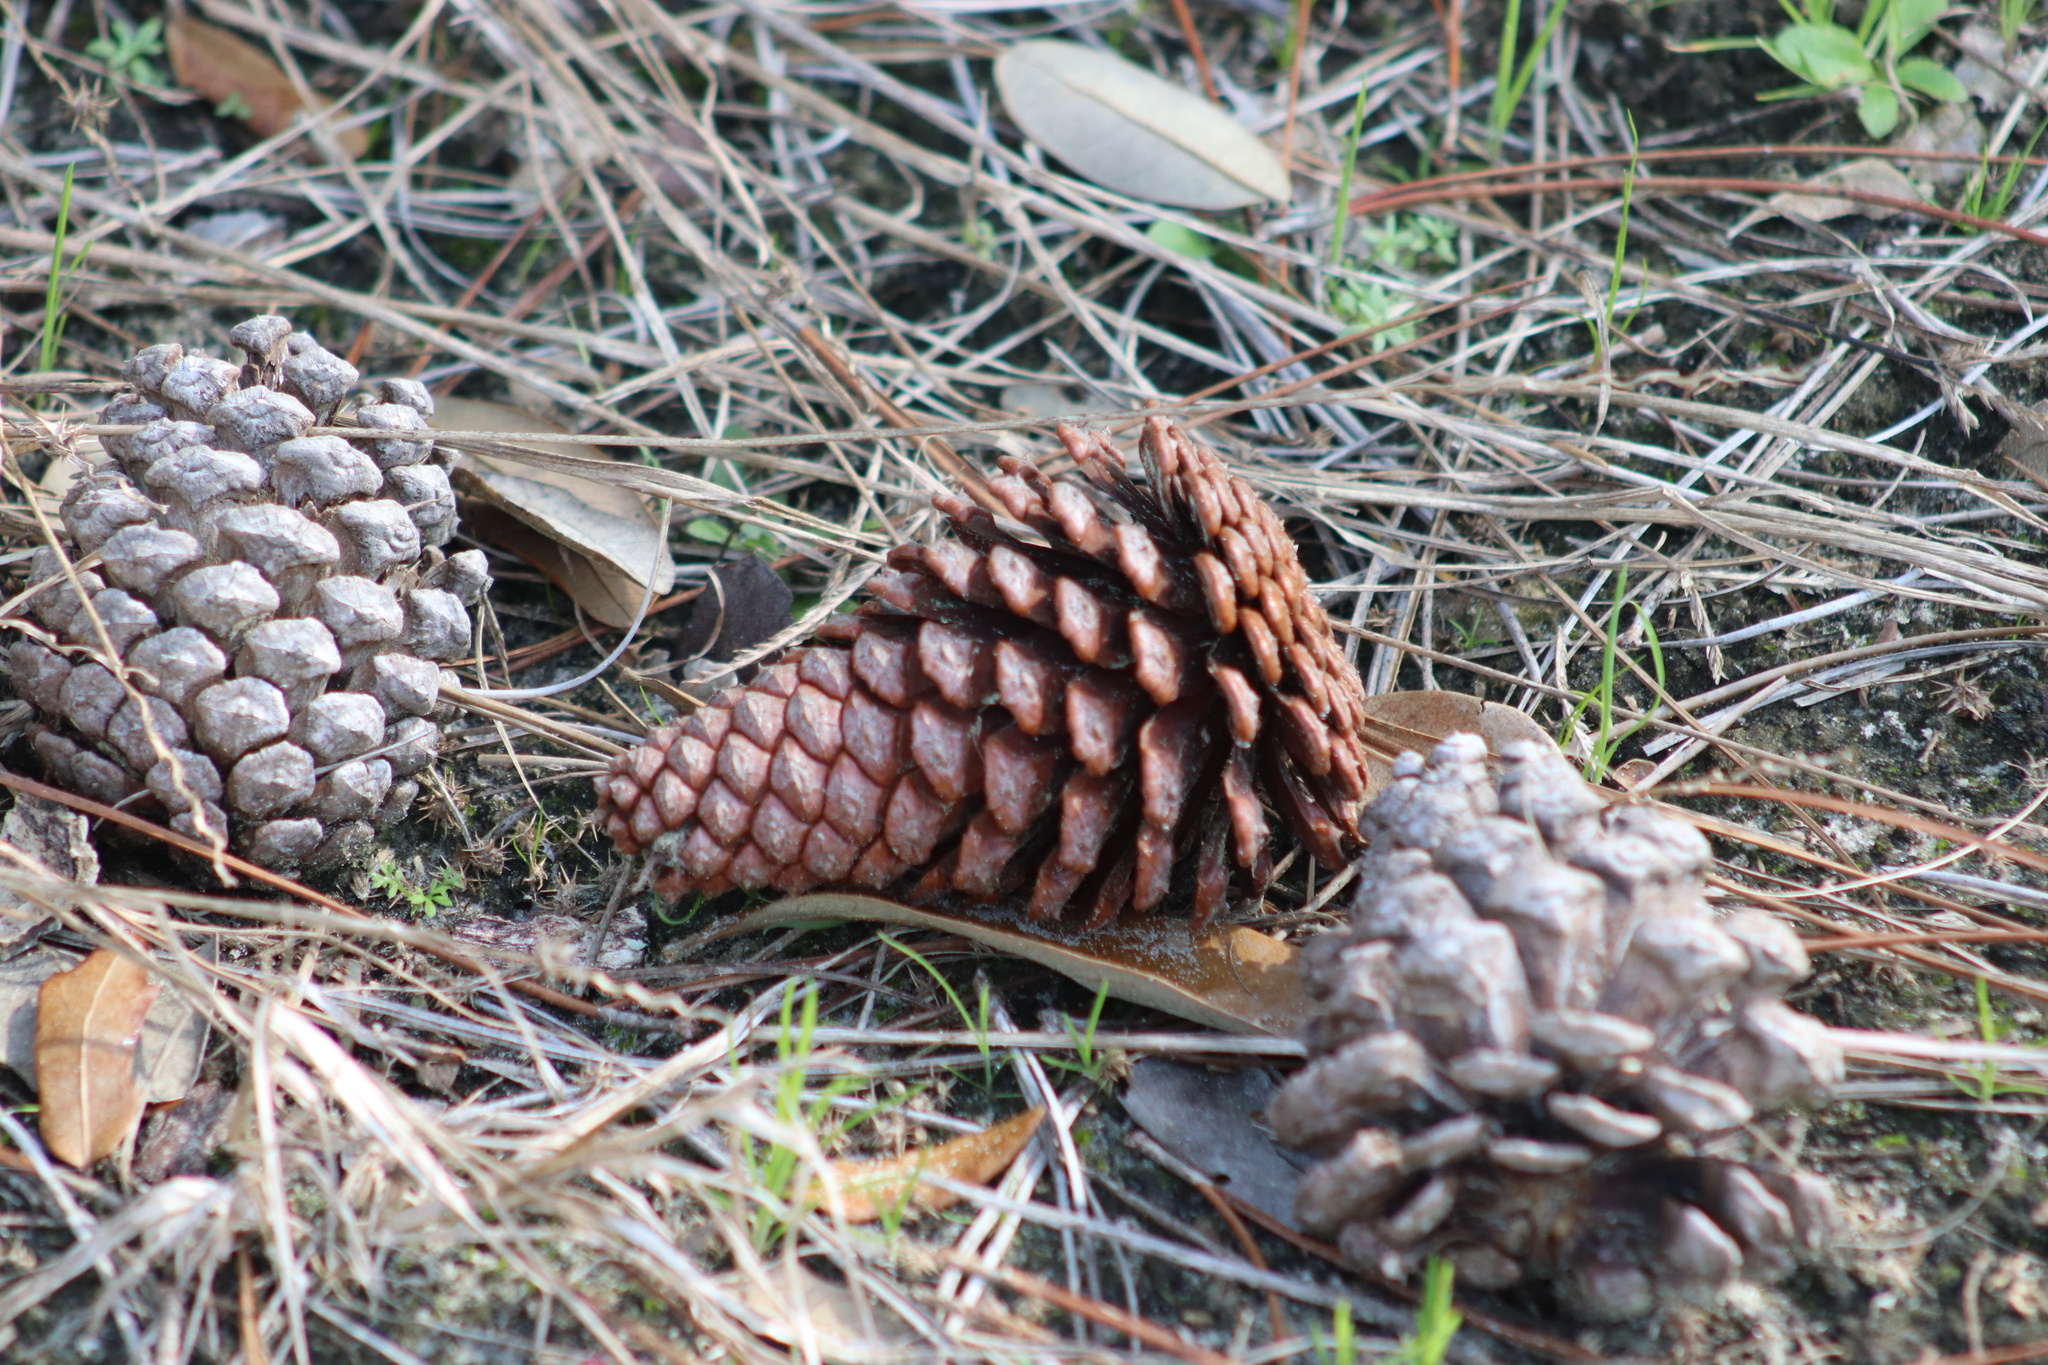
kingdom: Plantae
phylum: Tracheophyta
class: Pinopsida
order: Pinales
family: Pinaceae
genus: Pinus
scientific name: Pinus elliottii
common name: Slash pine
